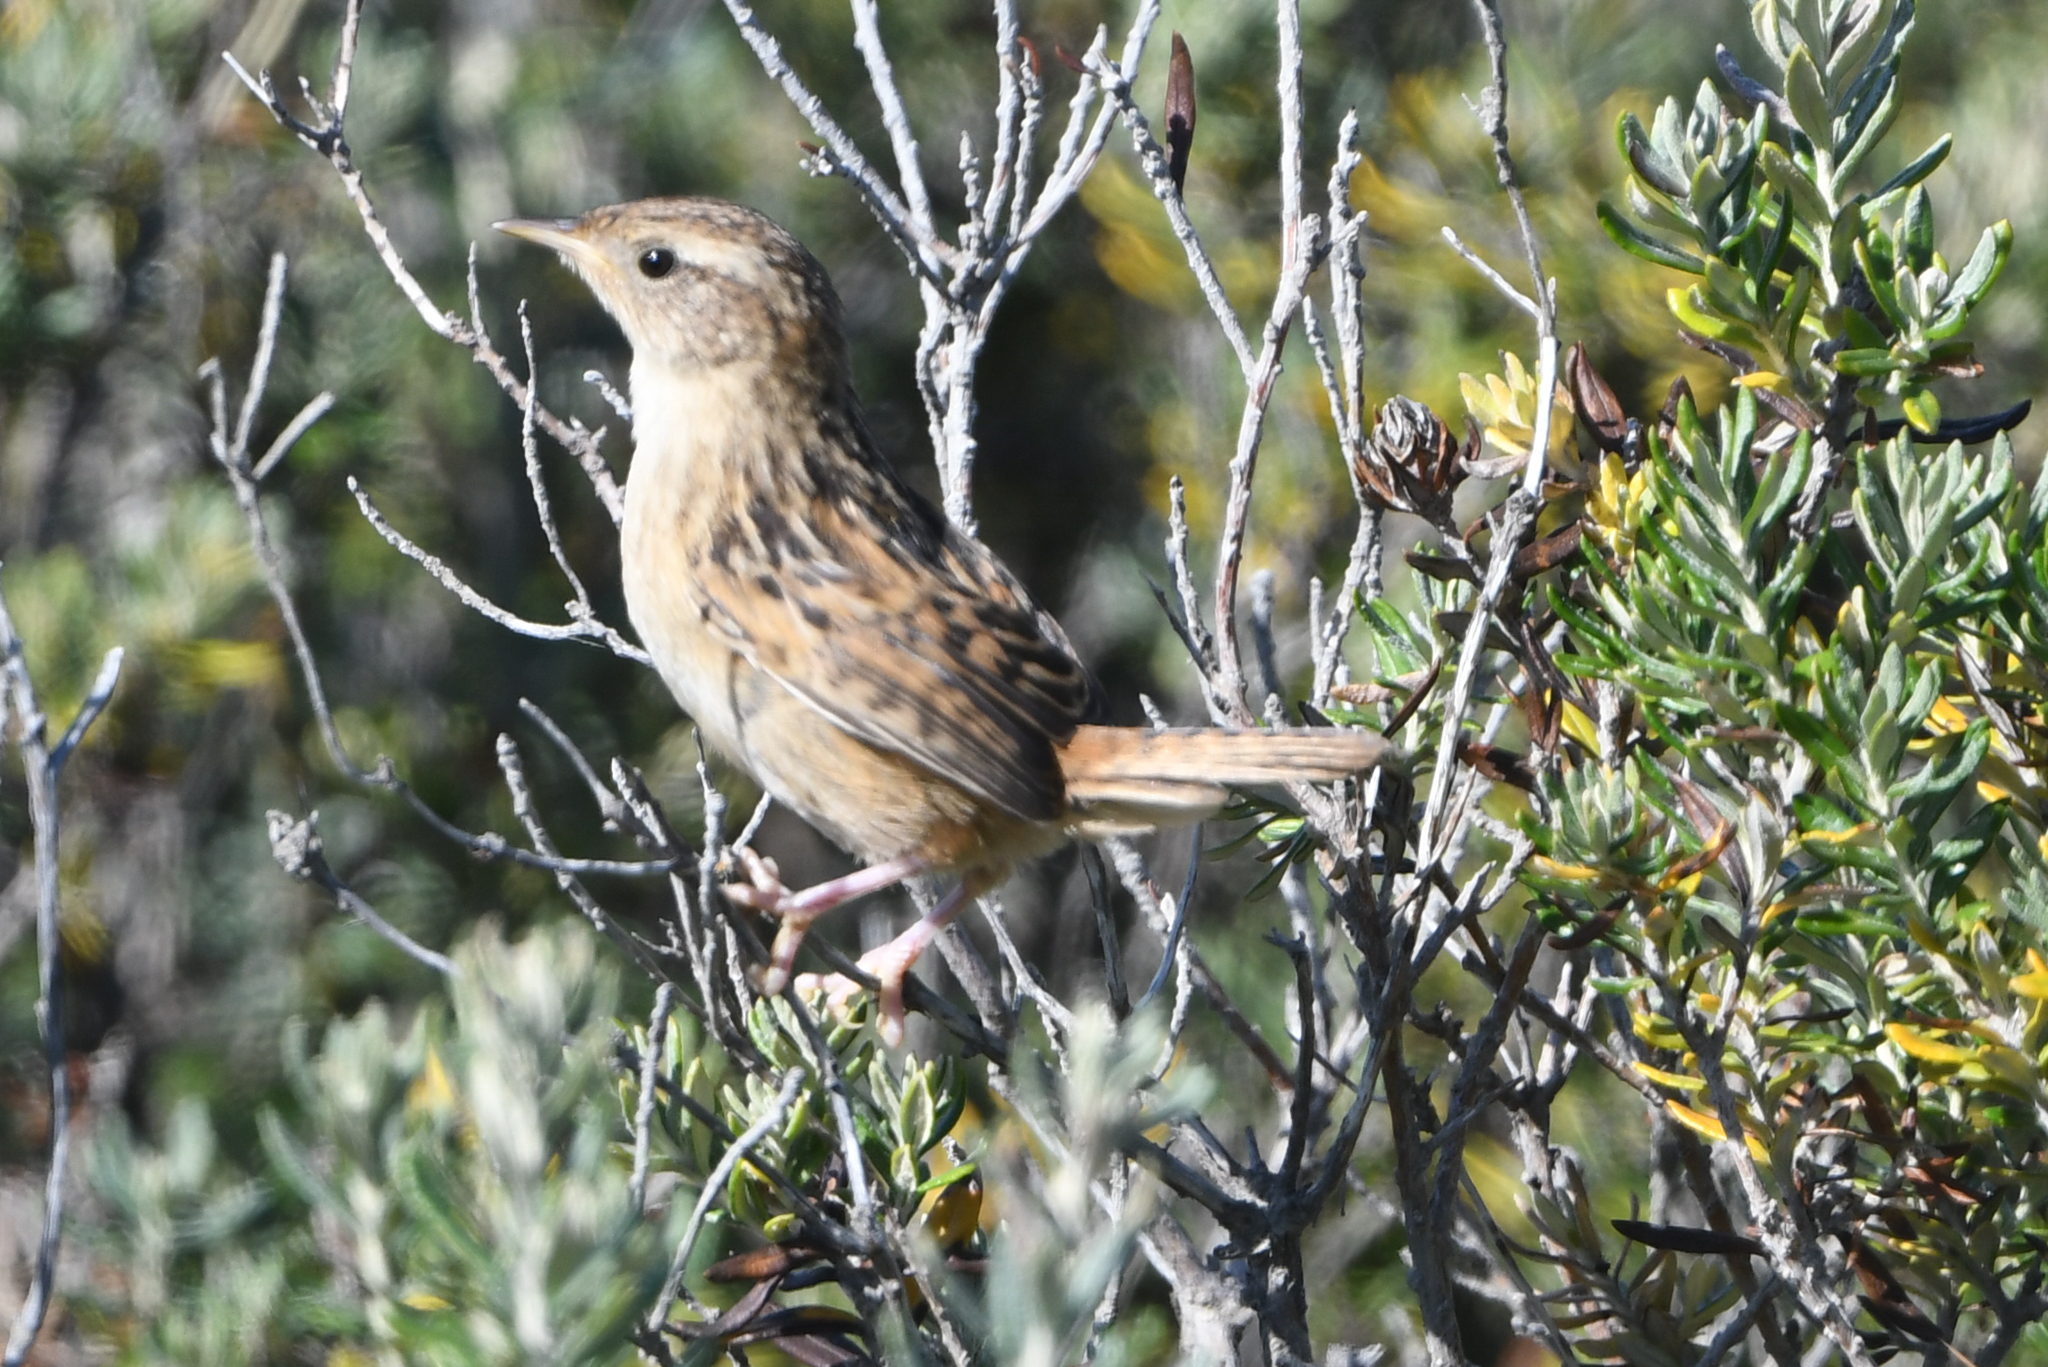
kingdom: Animalia
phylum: Chordata
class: Aves
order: Passeriformes
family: Troglodytidae
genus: Cistothorus
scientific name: Cistothorus platensis
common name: Sedge wren
